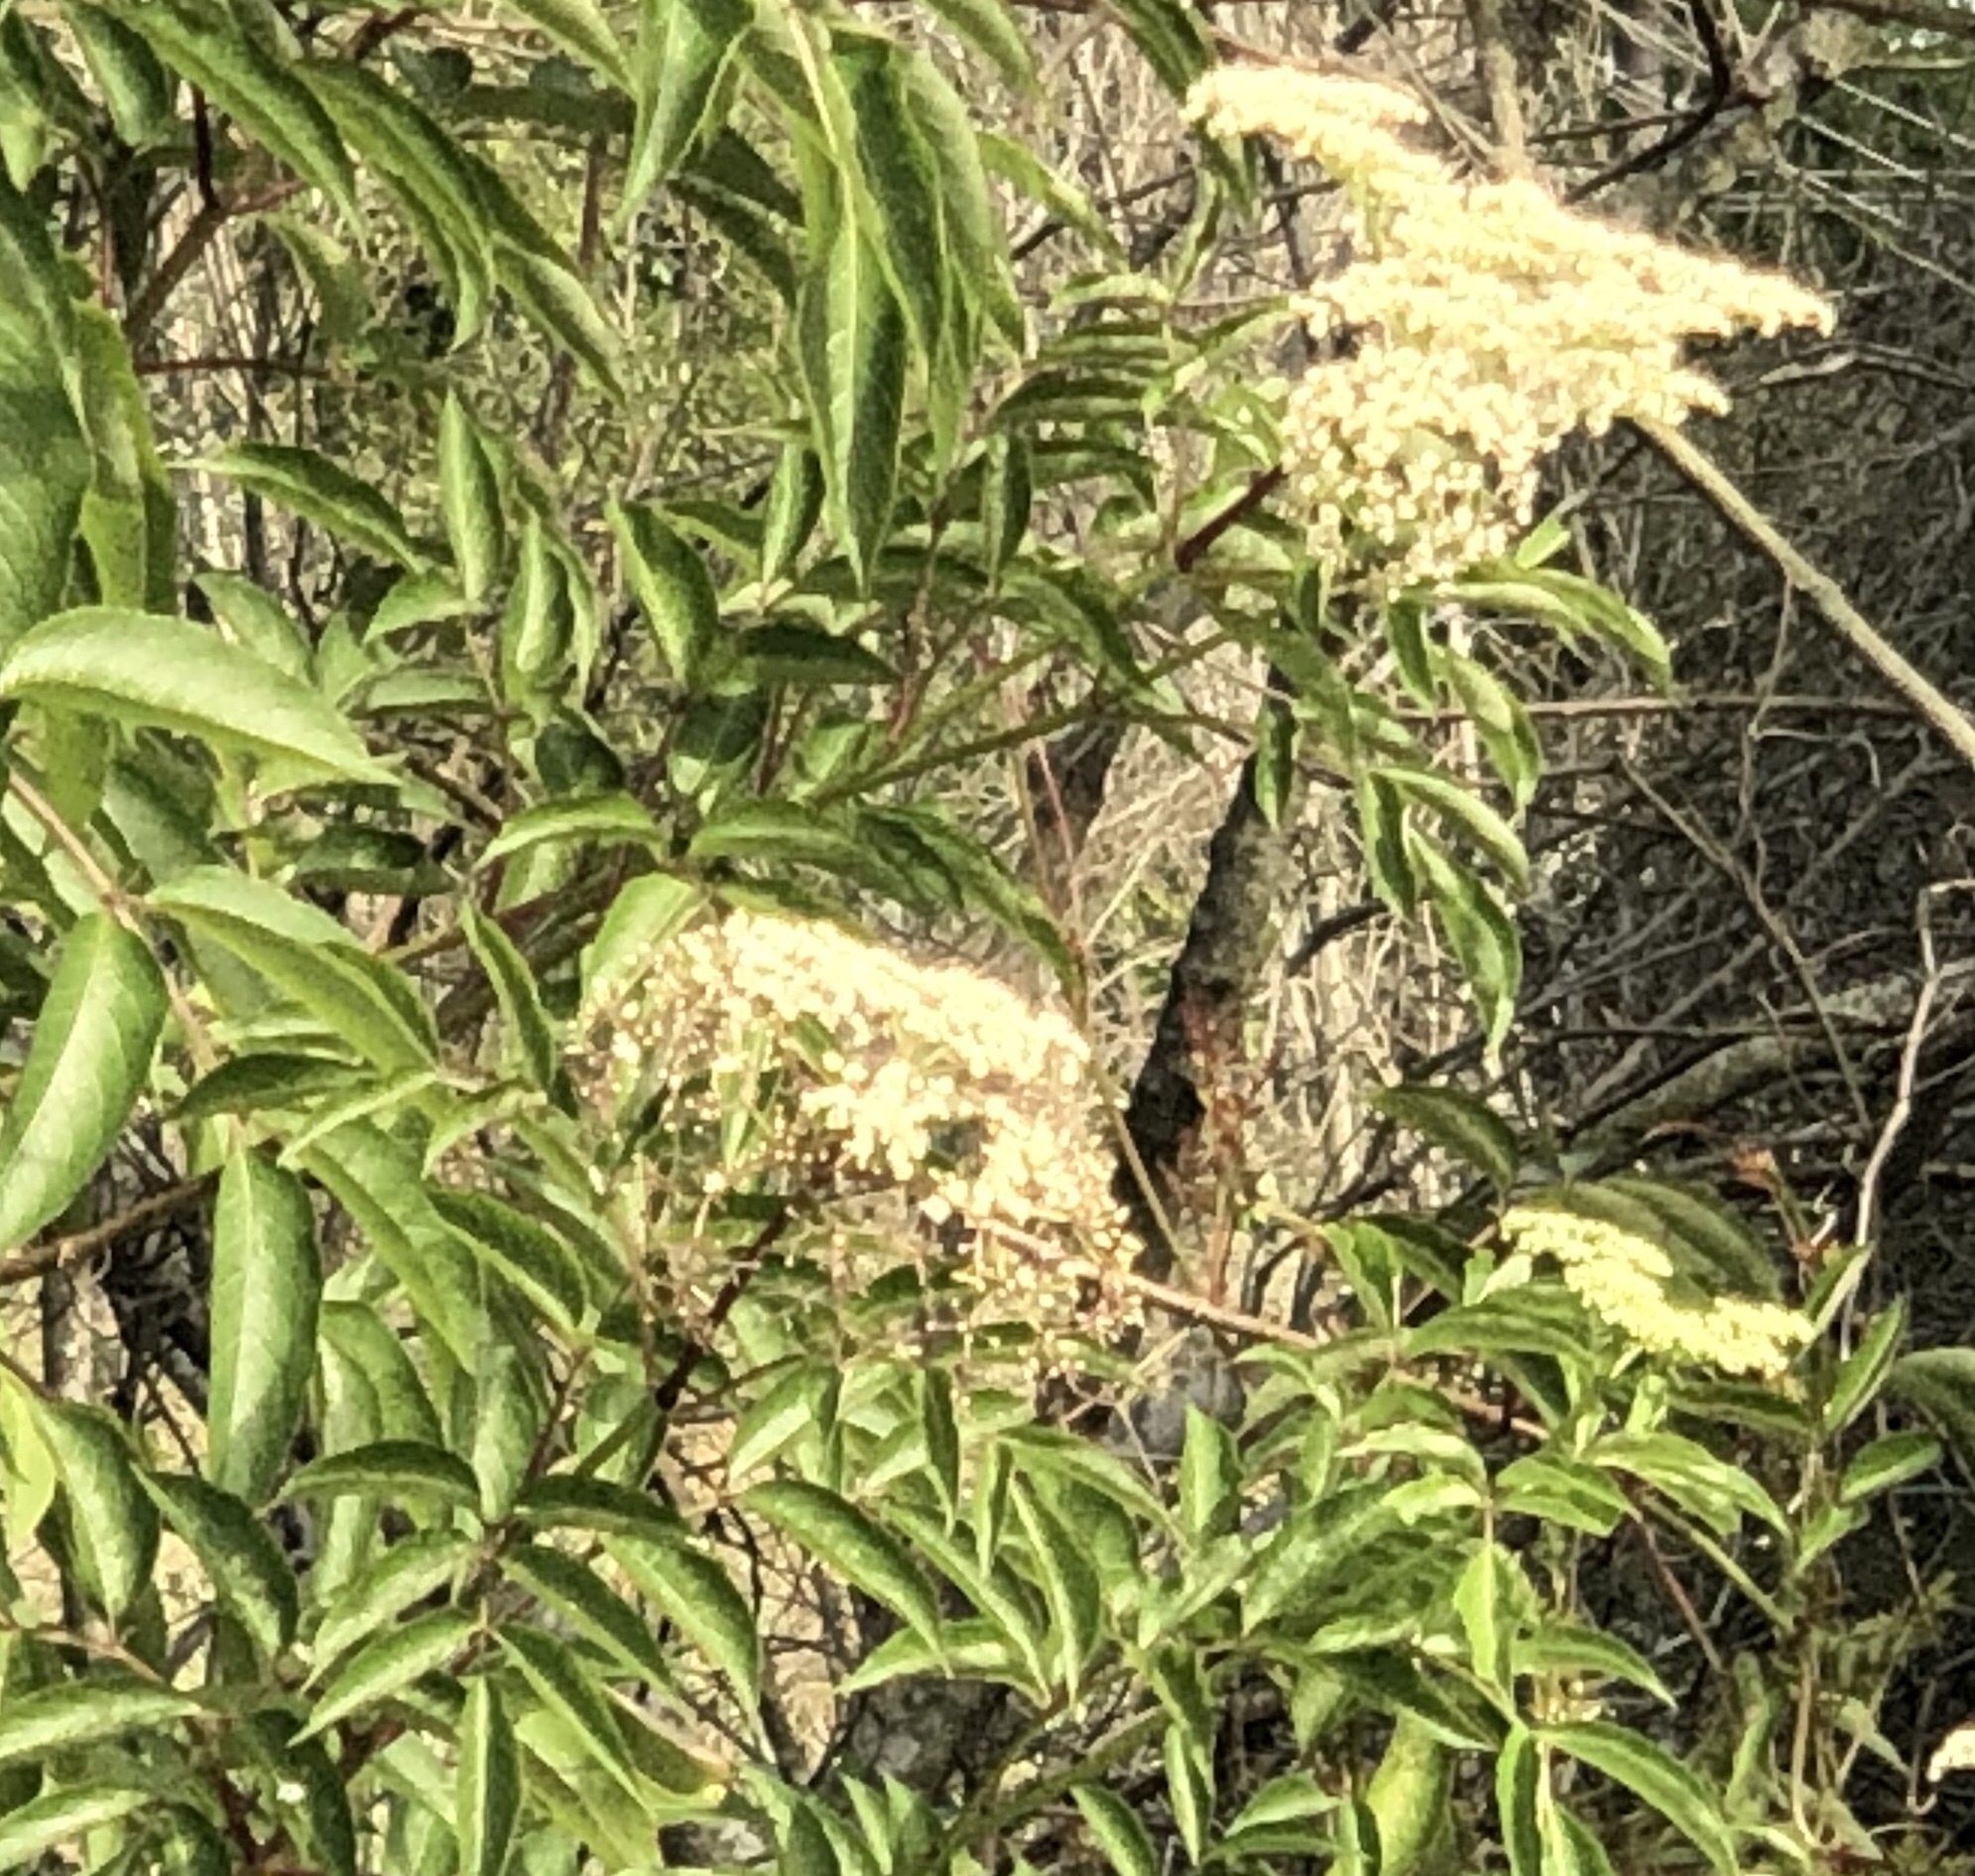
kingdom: Plantae
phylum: Tracheophyta
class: Magnoliopsida
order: Dipsacales
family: Viburnaceae
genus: Sambucus
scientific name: Sambucus canadensis
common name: American elder
